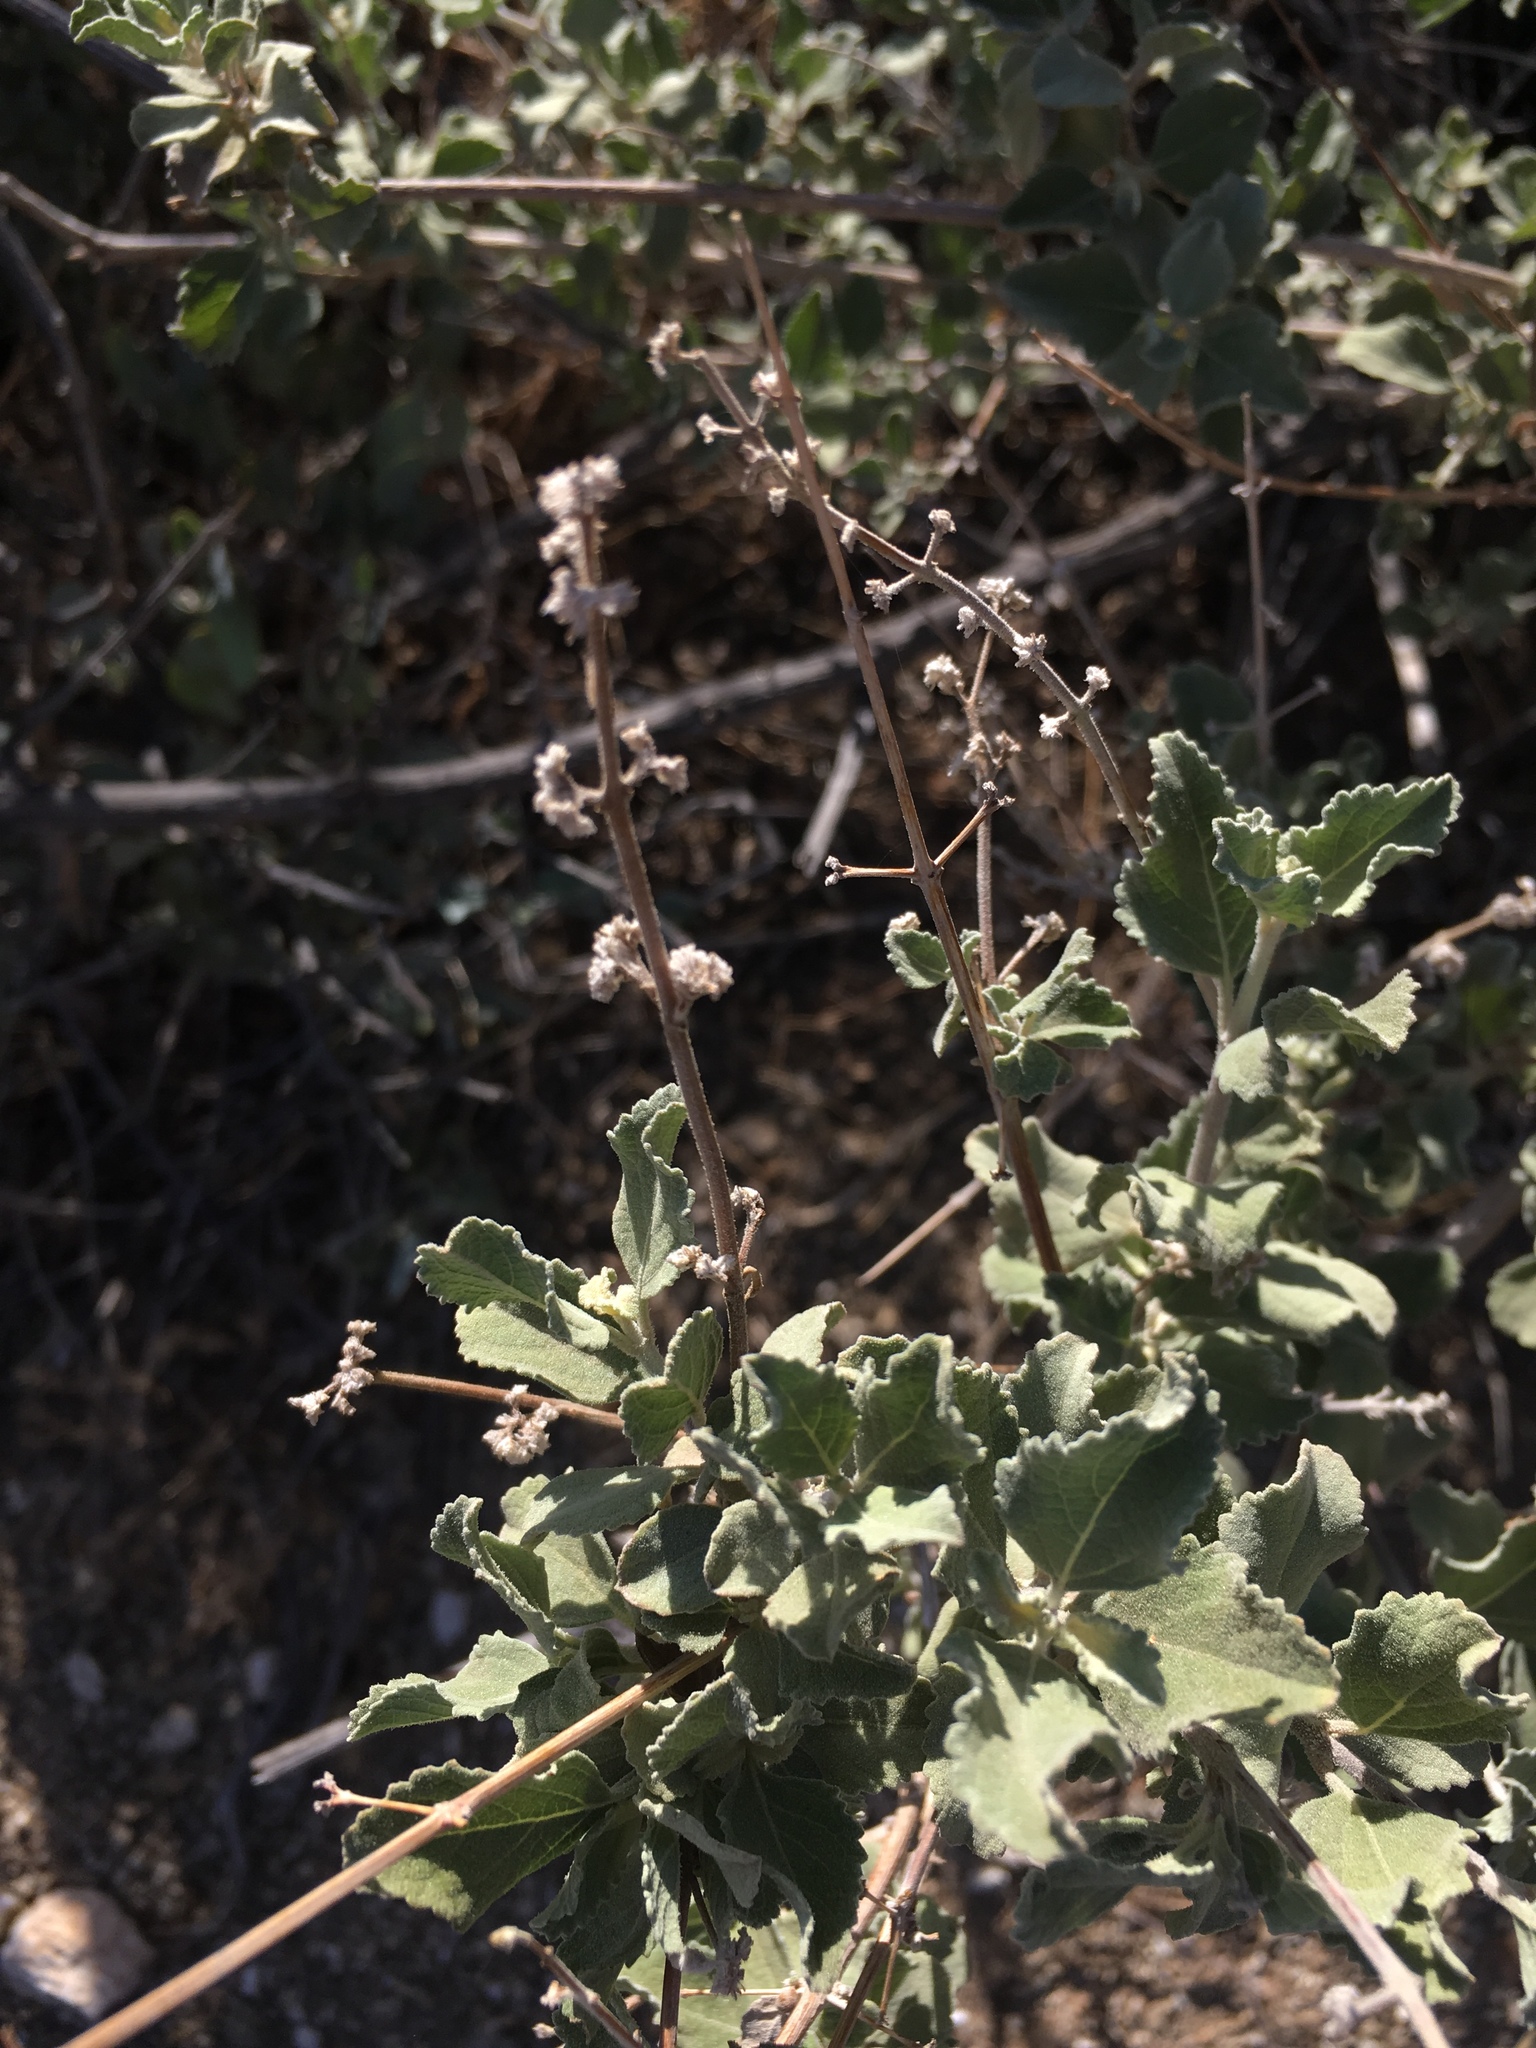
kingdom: Plantae
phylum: Tracheophyta
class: Magnoliopsida
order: Lamiales
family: Lamiaceae
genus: Condea
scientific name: Condea emoryi
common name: Chia
